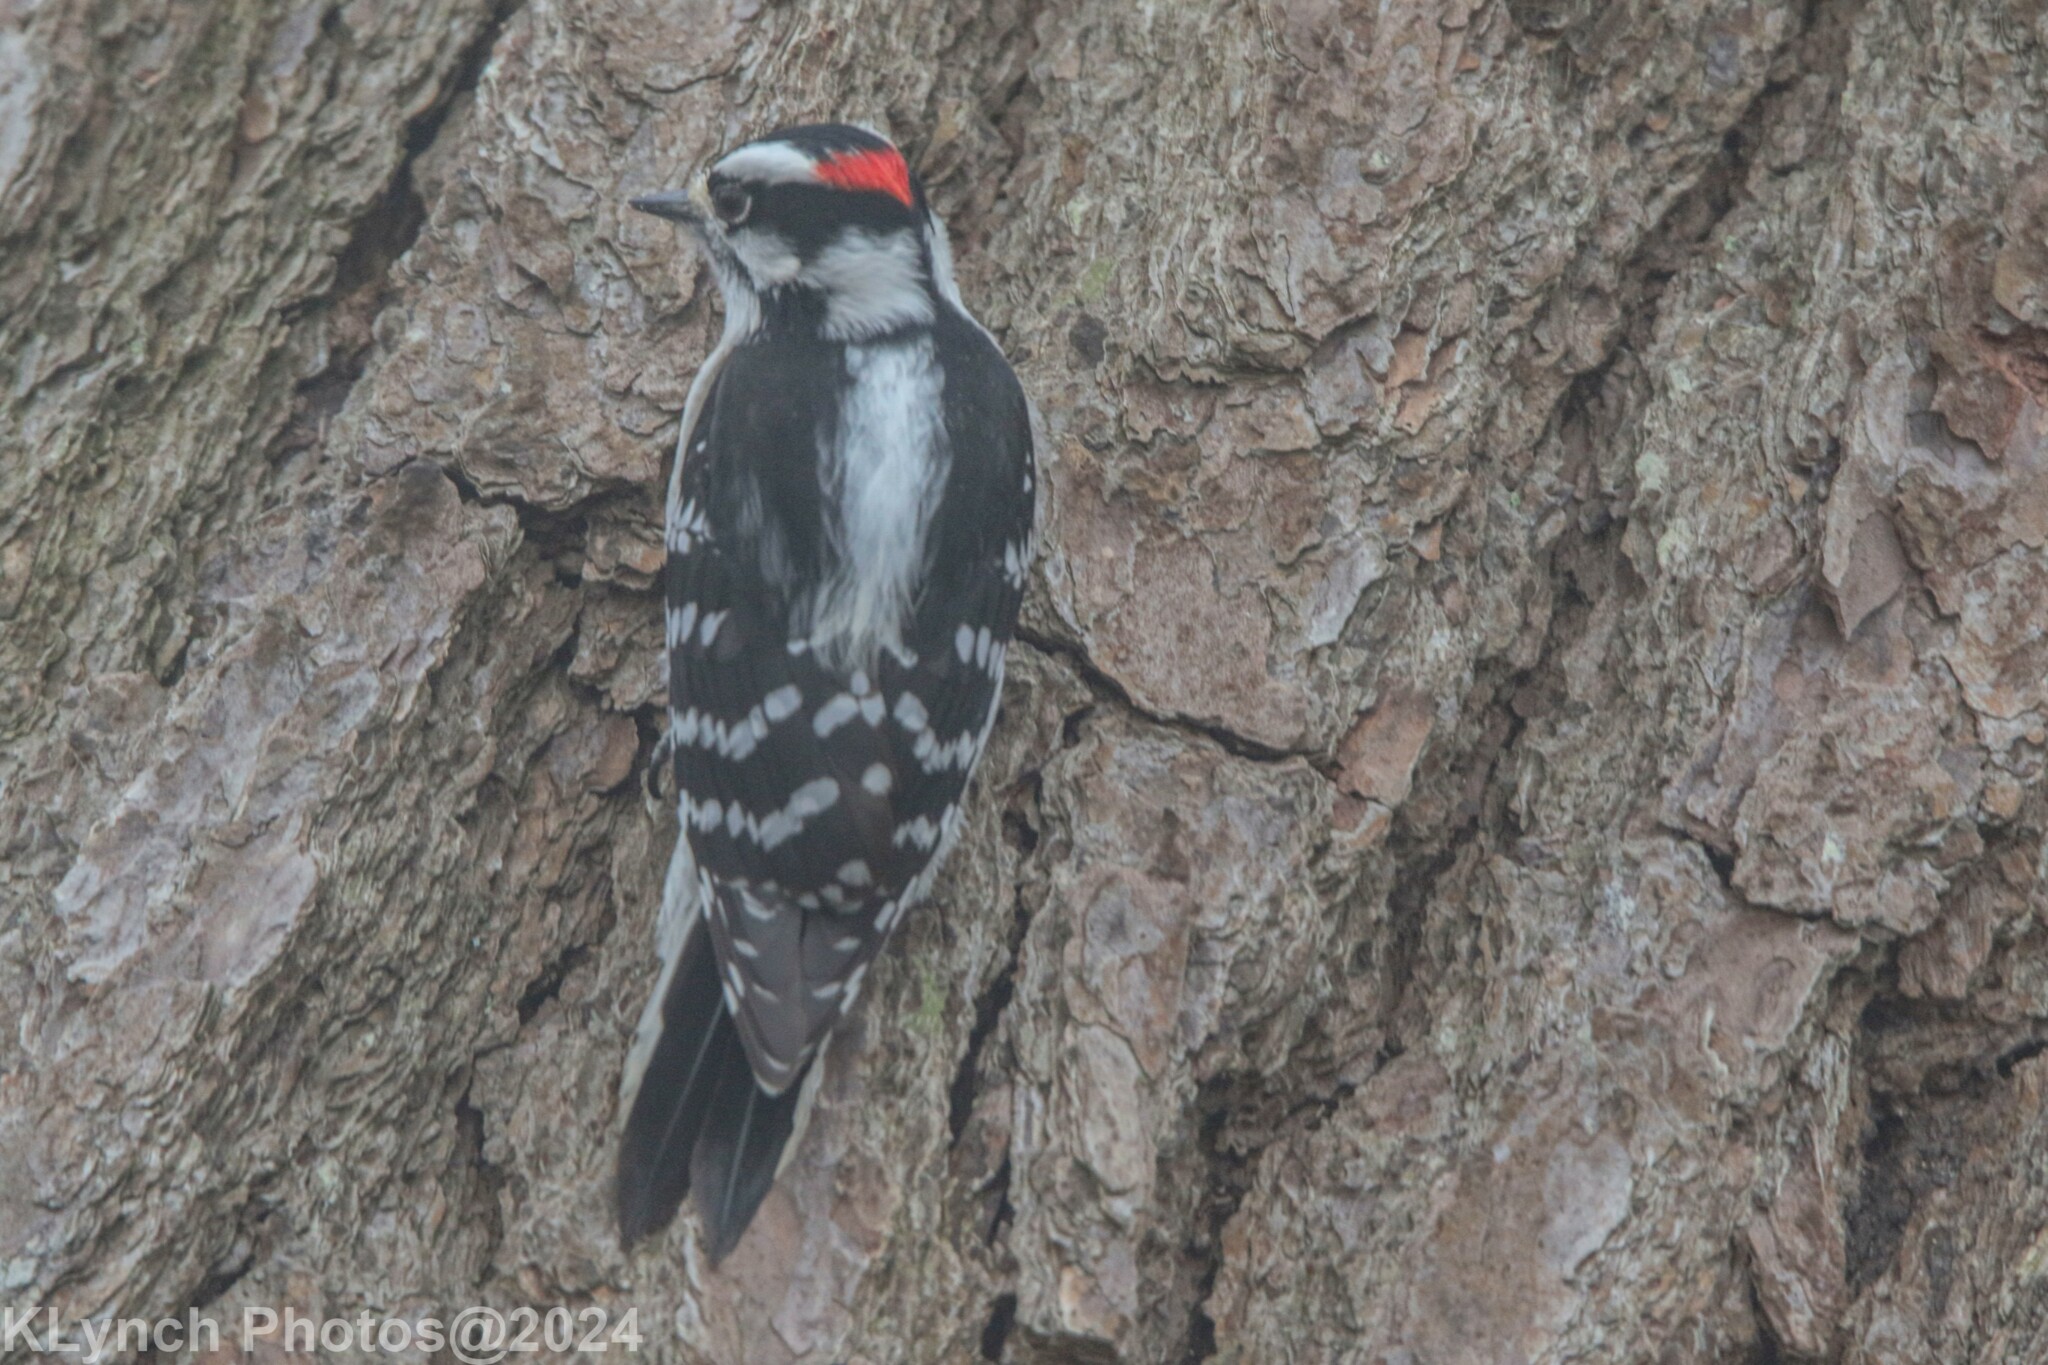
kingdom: Animalia
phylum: Chordata
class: Aves
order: Piciformes
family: Picidae
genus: Dryobates
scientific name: Dryobates pubescens
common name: Downy woodpecker
